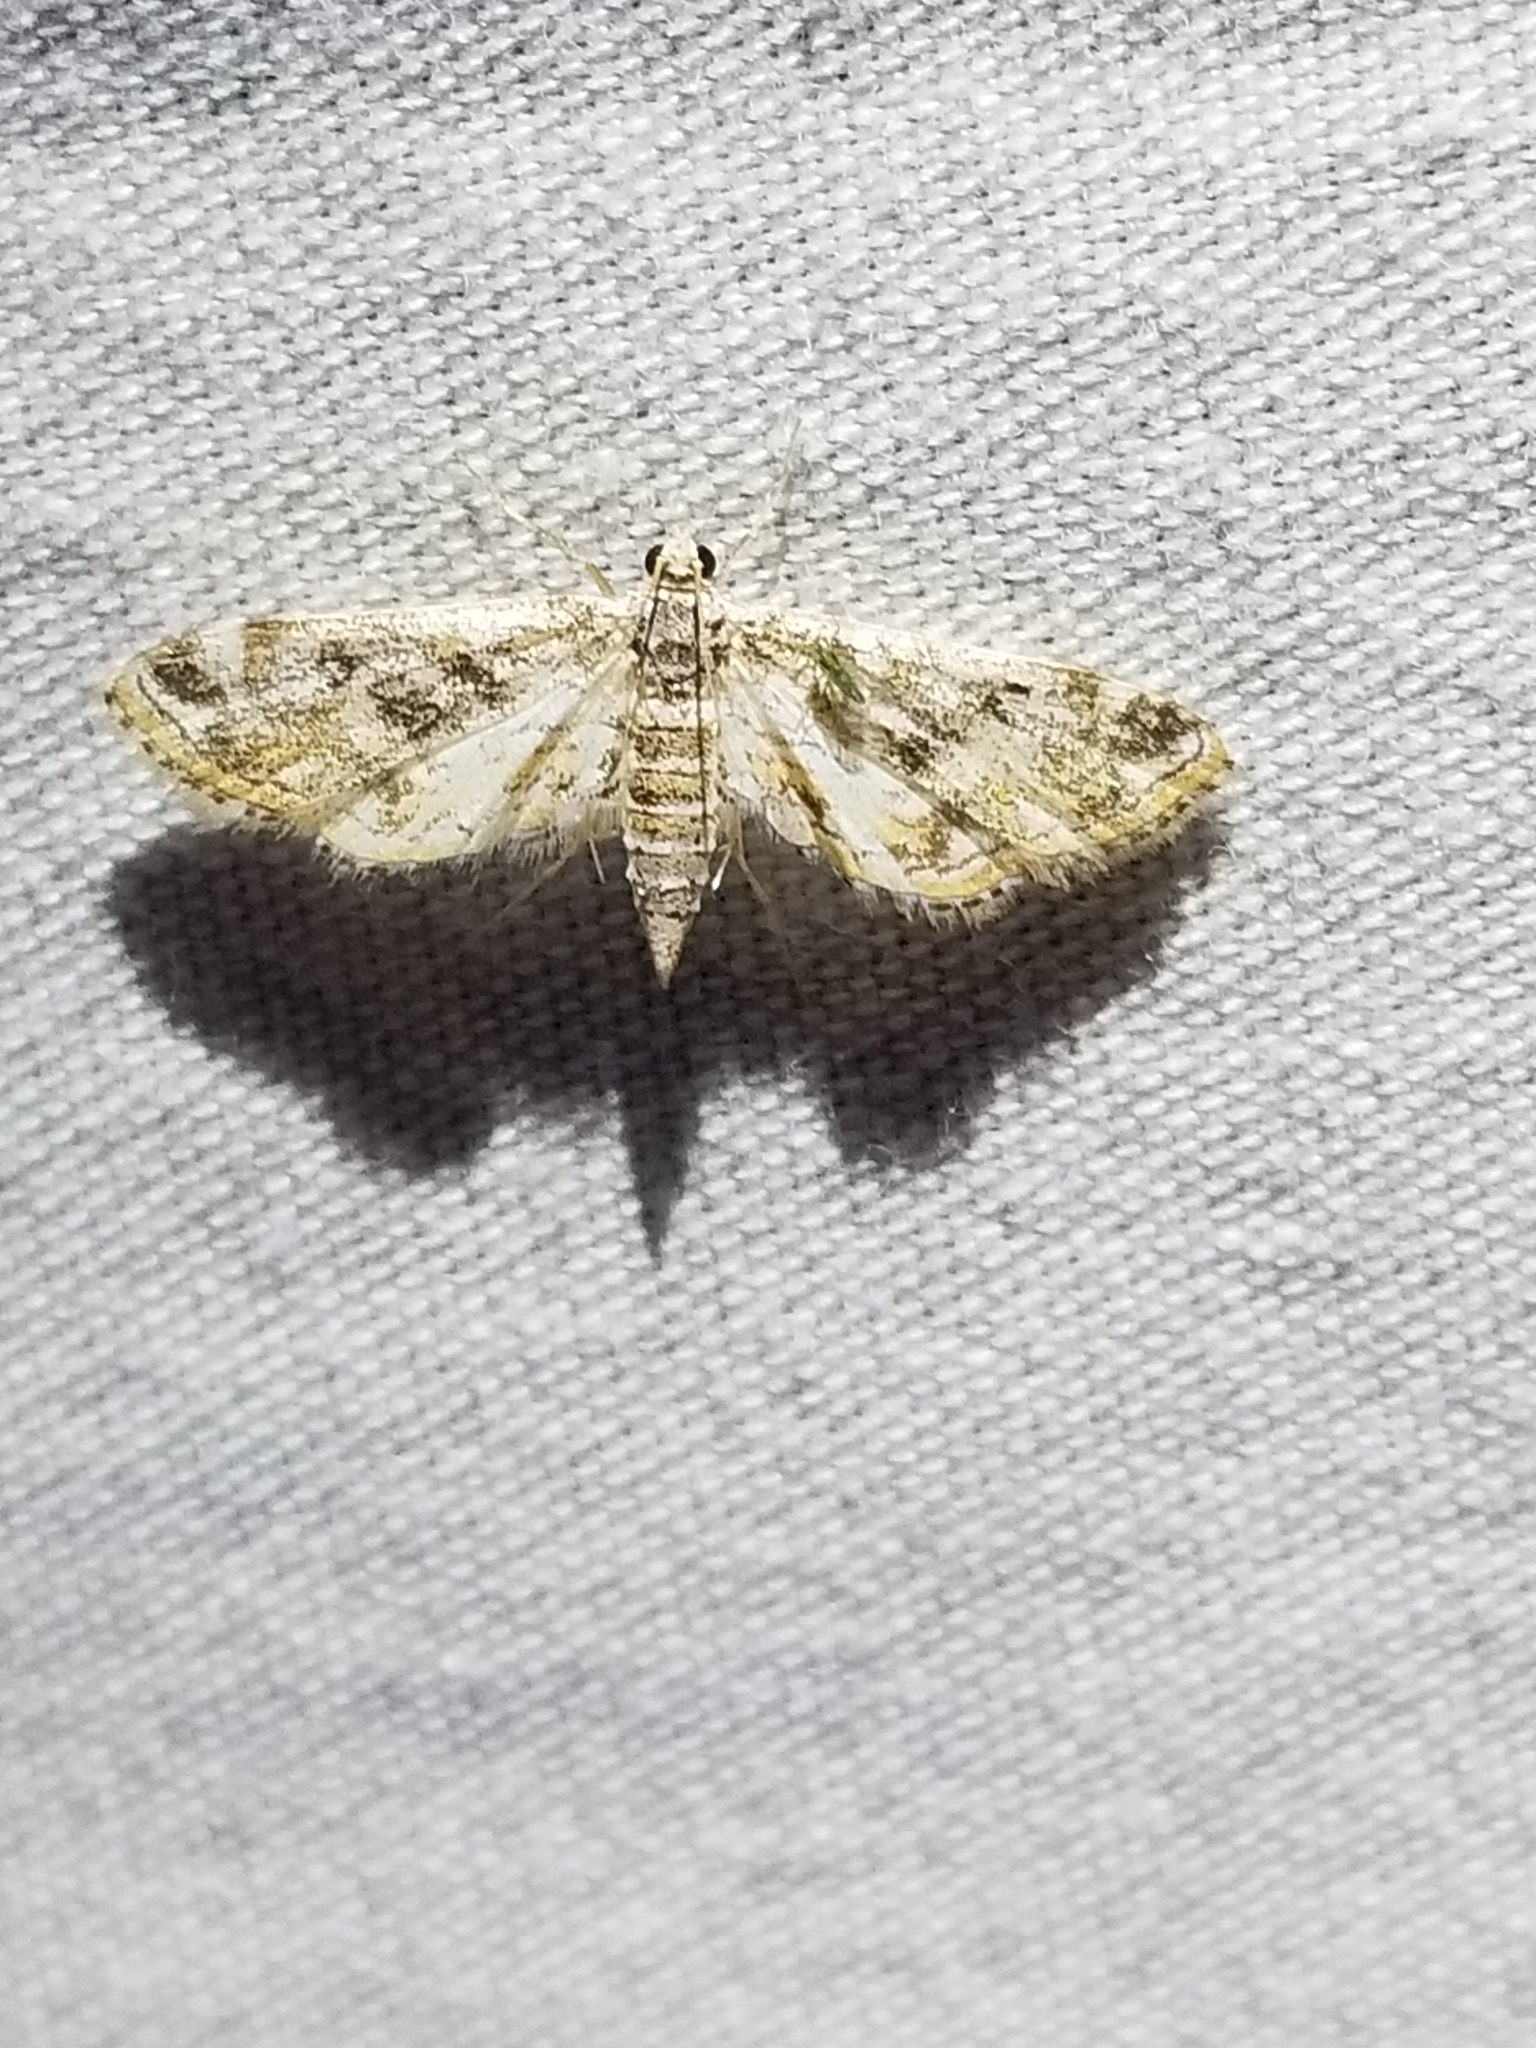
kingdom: Animalia
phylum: Arthropoda
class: Insecta
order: Lepidoptera
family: Crambidae
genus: Parapoynx
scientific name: Parapoynx diminutalis
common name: Hydrilla leafcutter
